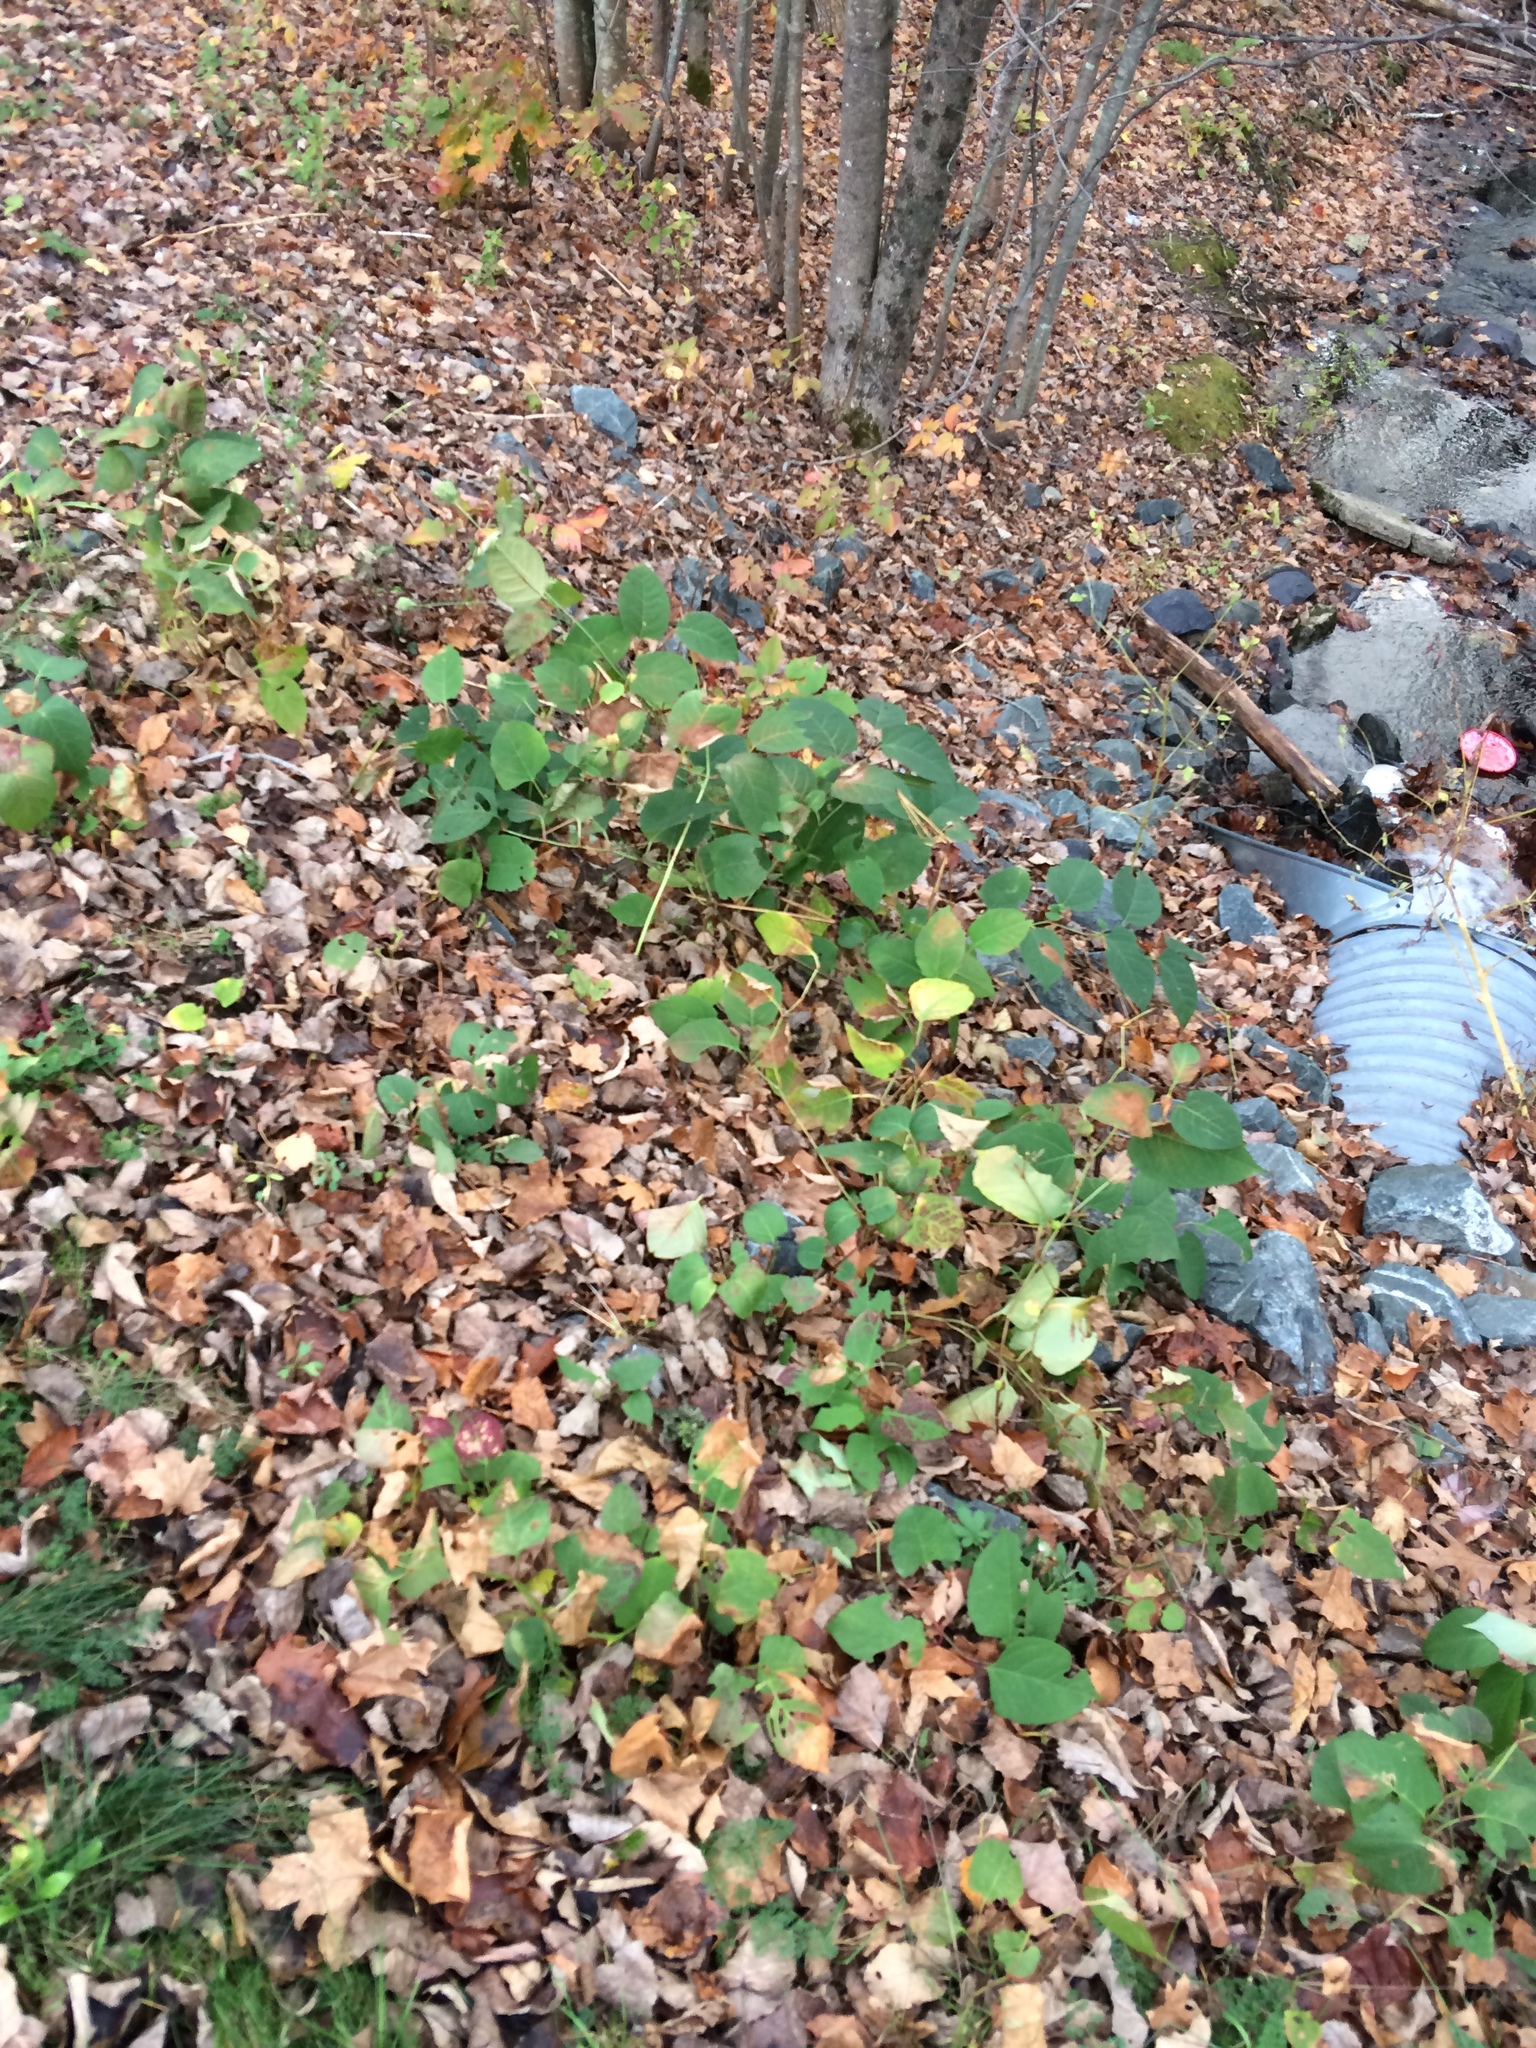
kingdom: Plantae
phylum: Tracheophyta
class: Magnoliopsida
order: Caryophyllales
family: Polygonaceae
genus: Reynoutria
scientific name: Reynoutria japonica
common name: Japanese knotweed
